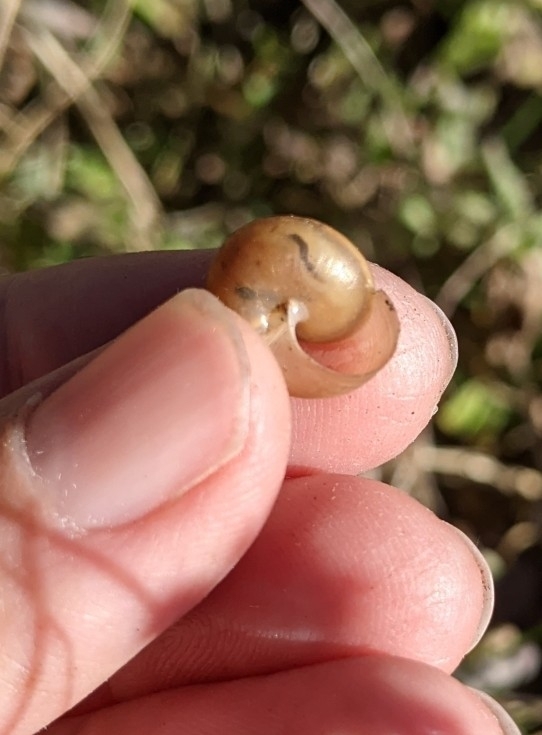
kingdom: Animalia
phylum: Mollusca
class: Gastropoda
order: Stylommatophora
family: Camaenidae
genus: Bradybaena
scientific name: Bradybaena similaris
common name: Asian trampsnail
